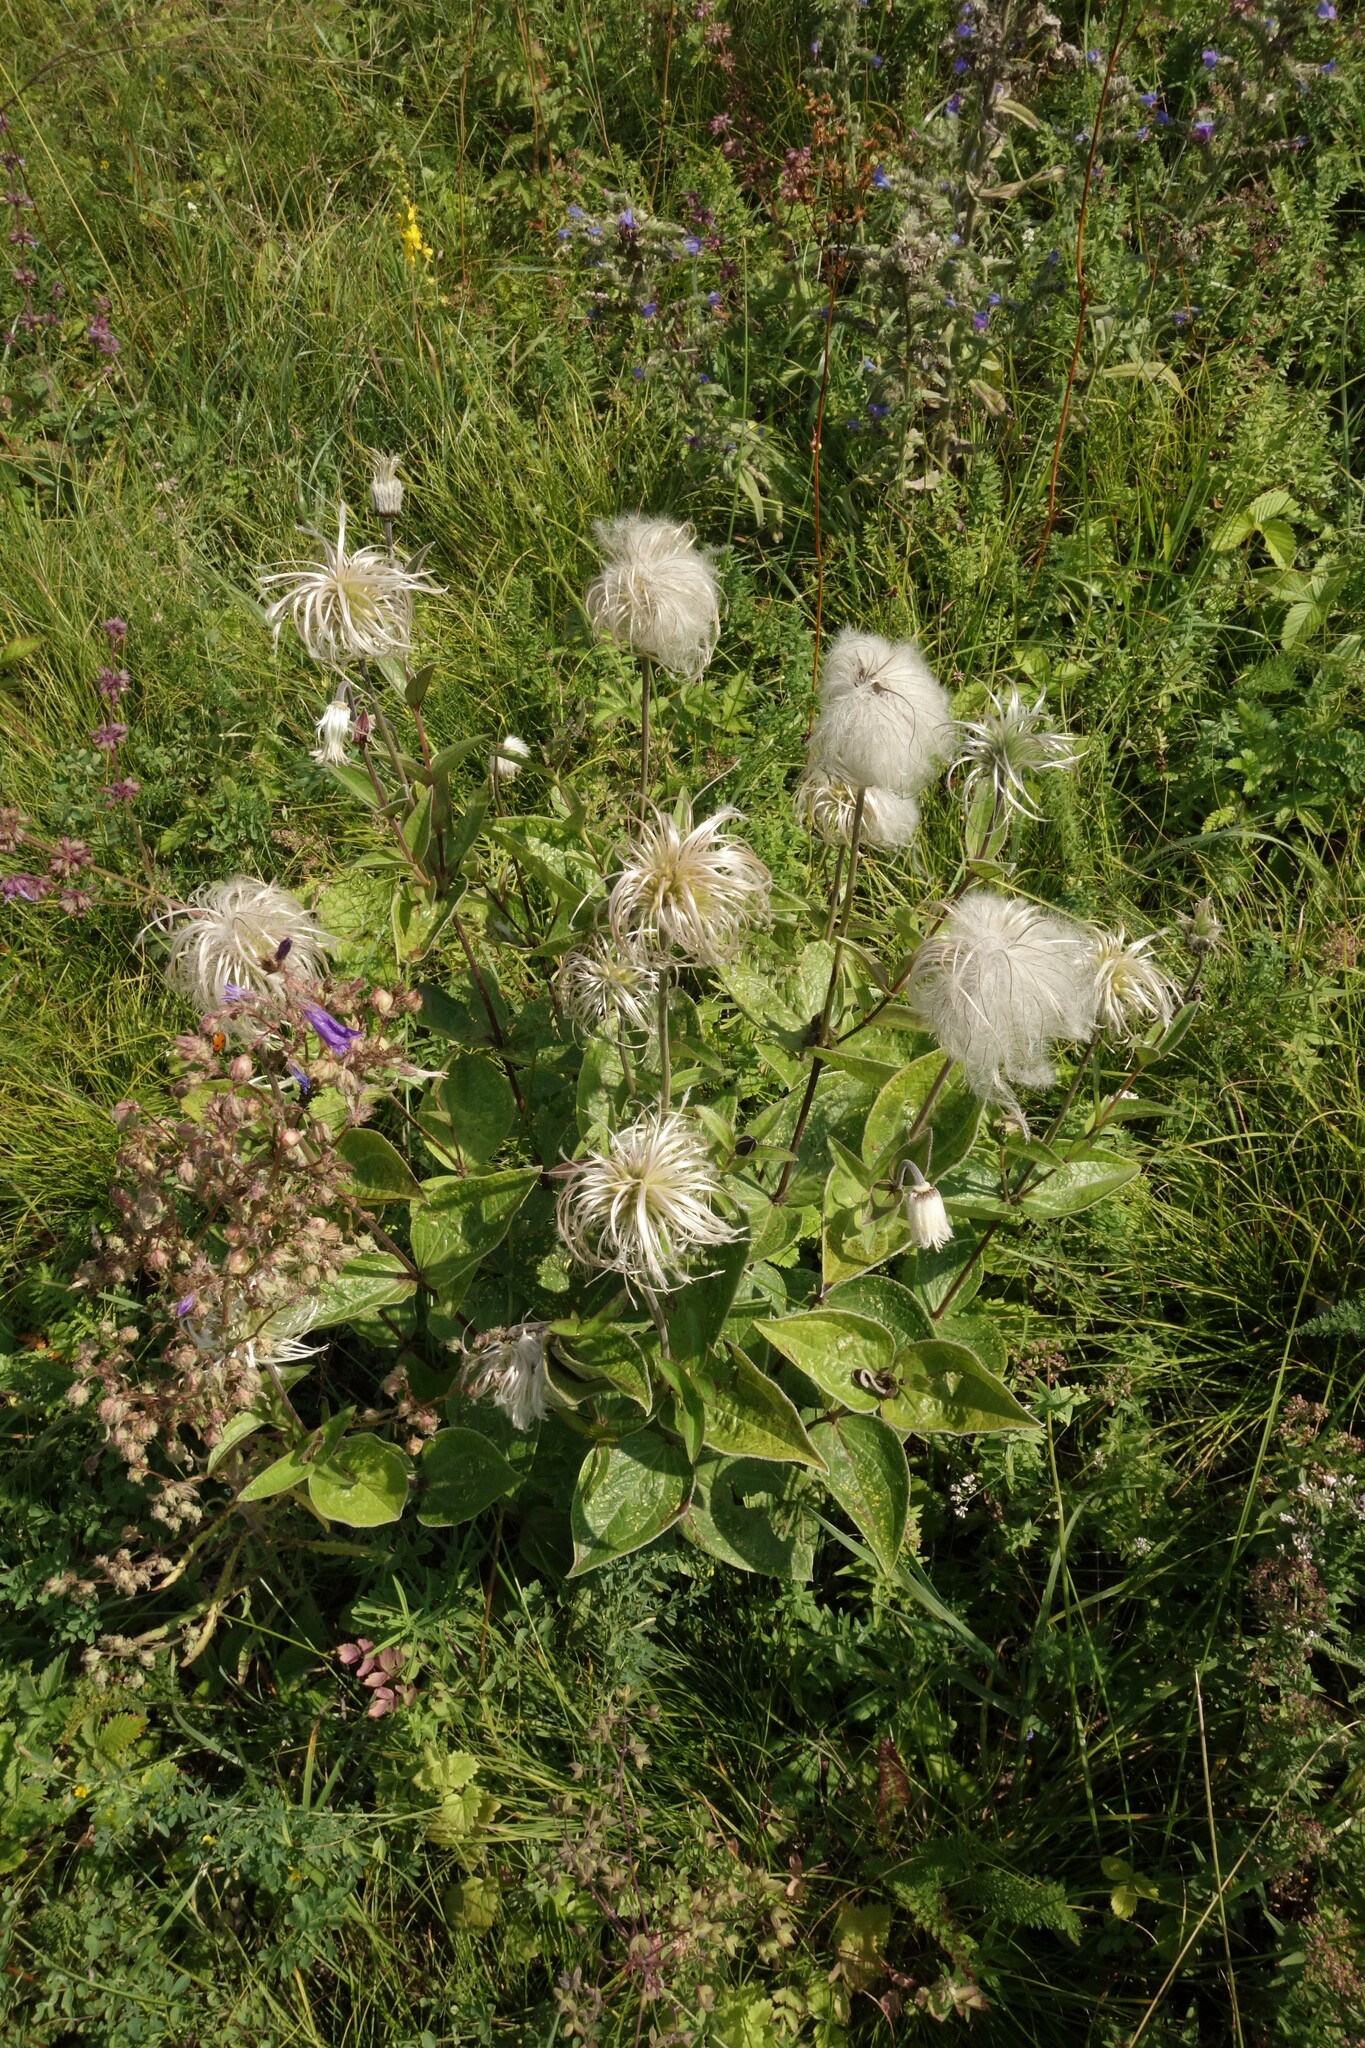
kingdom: Plantae
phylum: Tracheophyta
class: Magnoliopsida
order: Ranunculales
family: Ranunculaceae
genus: Clematis
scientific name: Clematis integrifolia
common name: Solitary clematis
